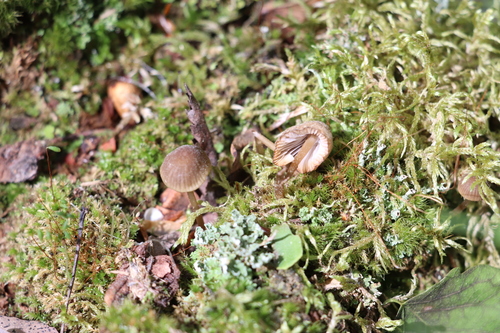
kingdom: Fungi
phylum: Basidiomycota
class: Agaricomycetes
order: Agaricales
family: Mycenaceae
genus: Mycena
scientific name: Mycena viridimarginata
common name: Olive edge bonnet
